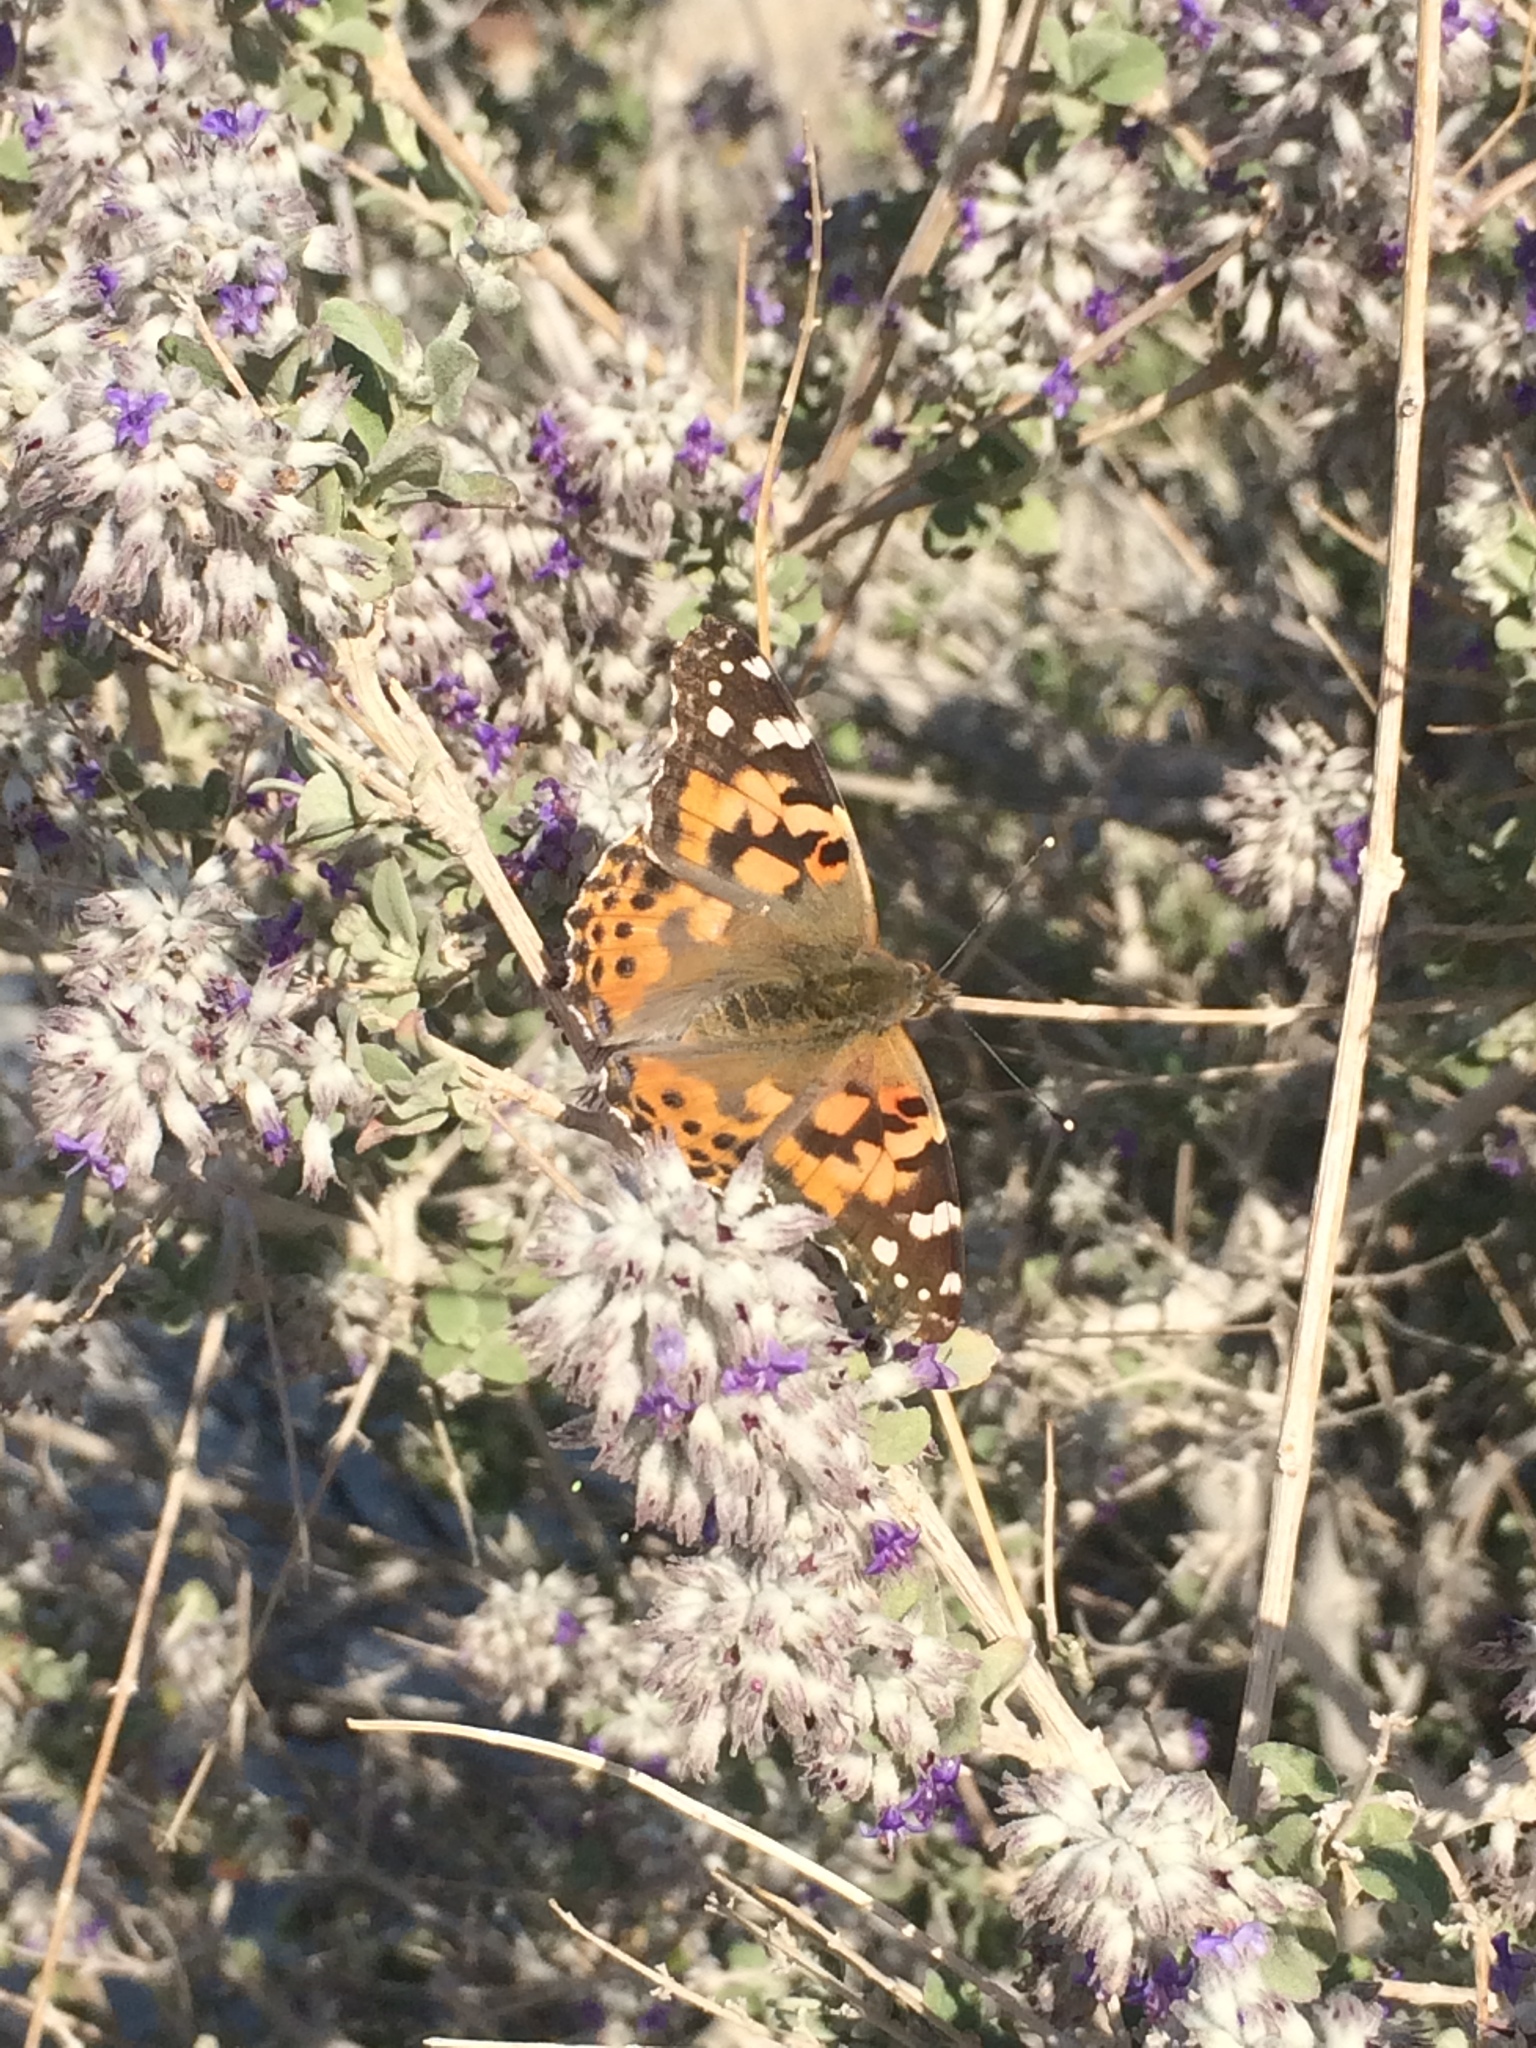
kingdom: Animalia
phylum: Arthropoda
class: Insecta
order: Lepidoptera
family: Nymphalidae
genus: Vanessa
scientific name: Vanessa cardui
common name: Painted lady
